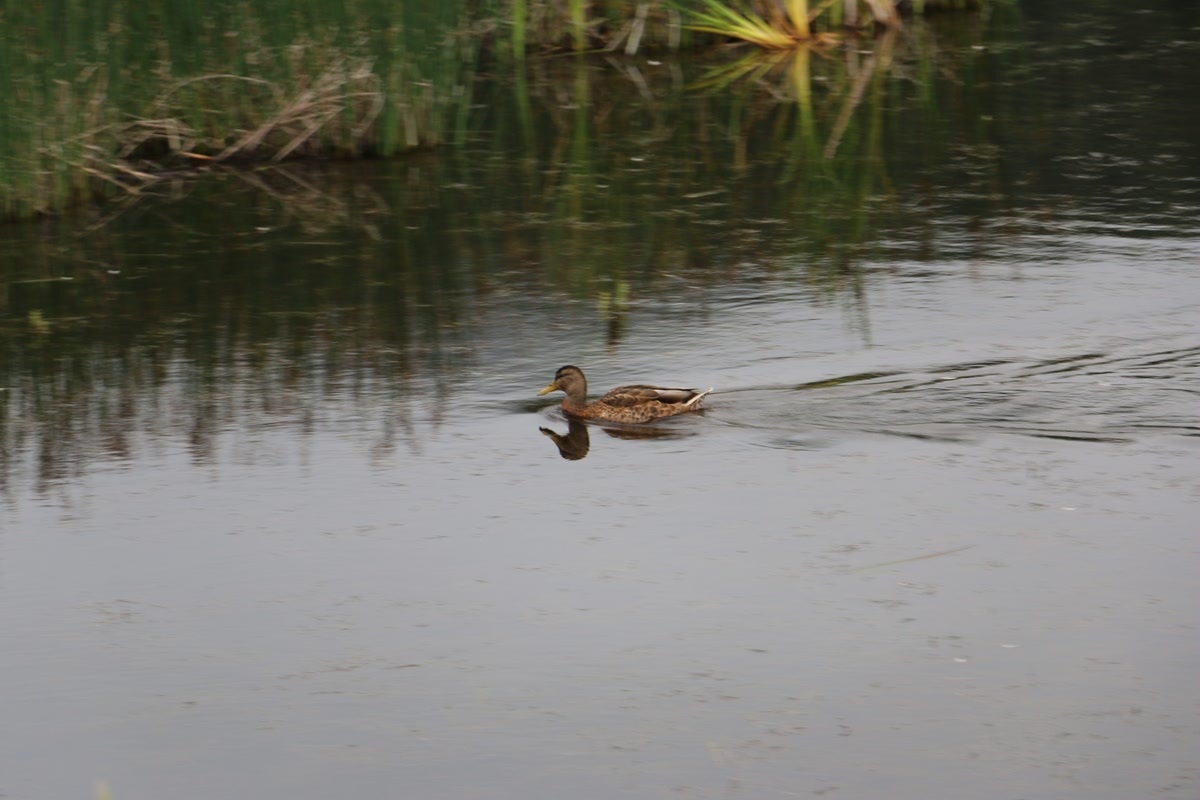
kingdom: Animalia
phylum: Chordata
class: Aves
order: Anseriformes
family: Anatidae
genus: Anas
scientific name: Anas platyrhynchos
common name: Mallard
